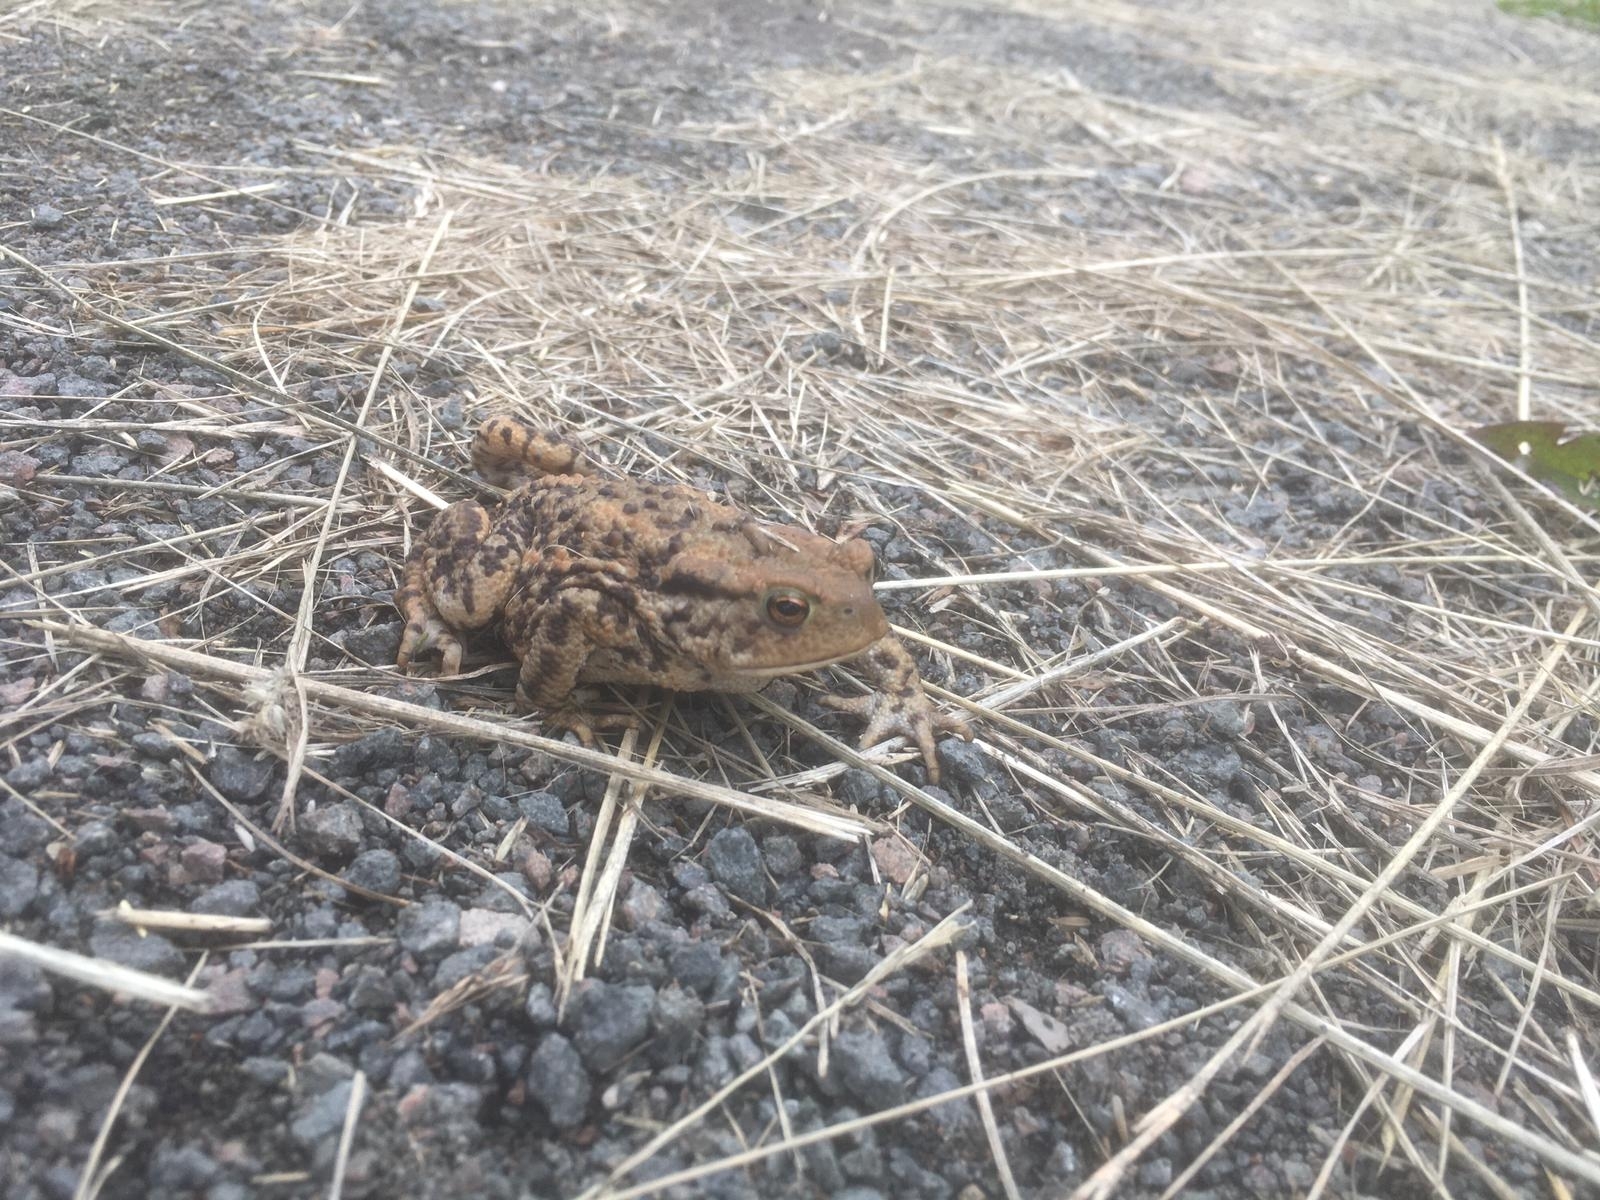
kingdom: Animalia
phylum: Chordata
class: Amphibia
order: Anura
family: Bufonidae
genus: Bufo
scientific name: Bufo bufo
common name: Common toad
